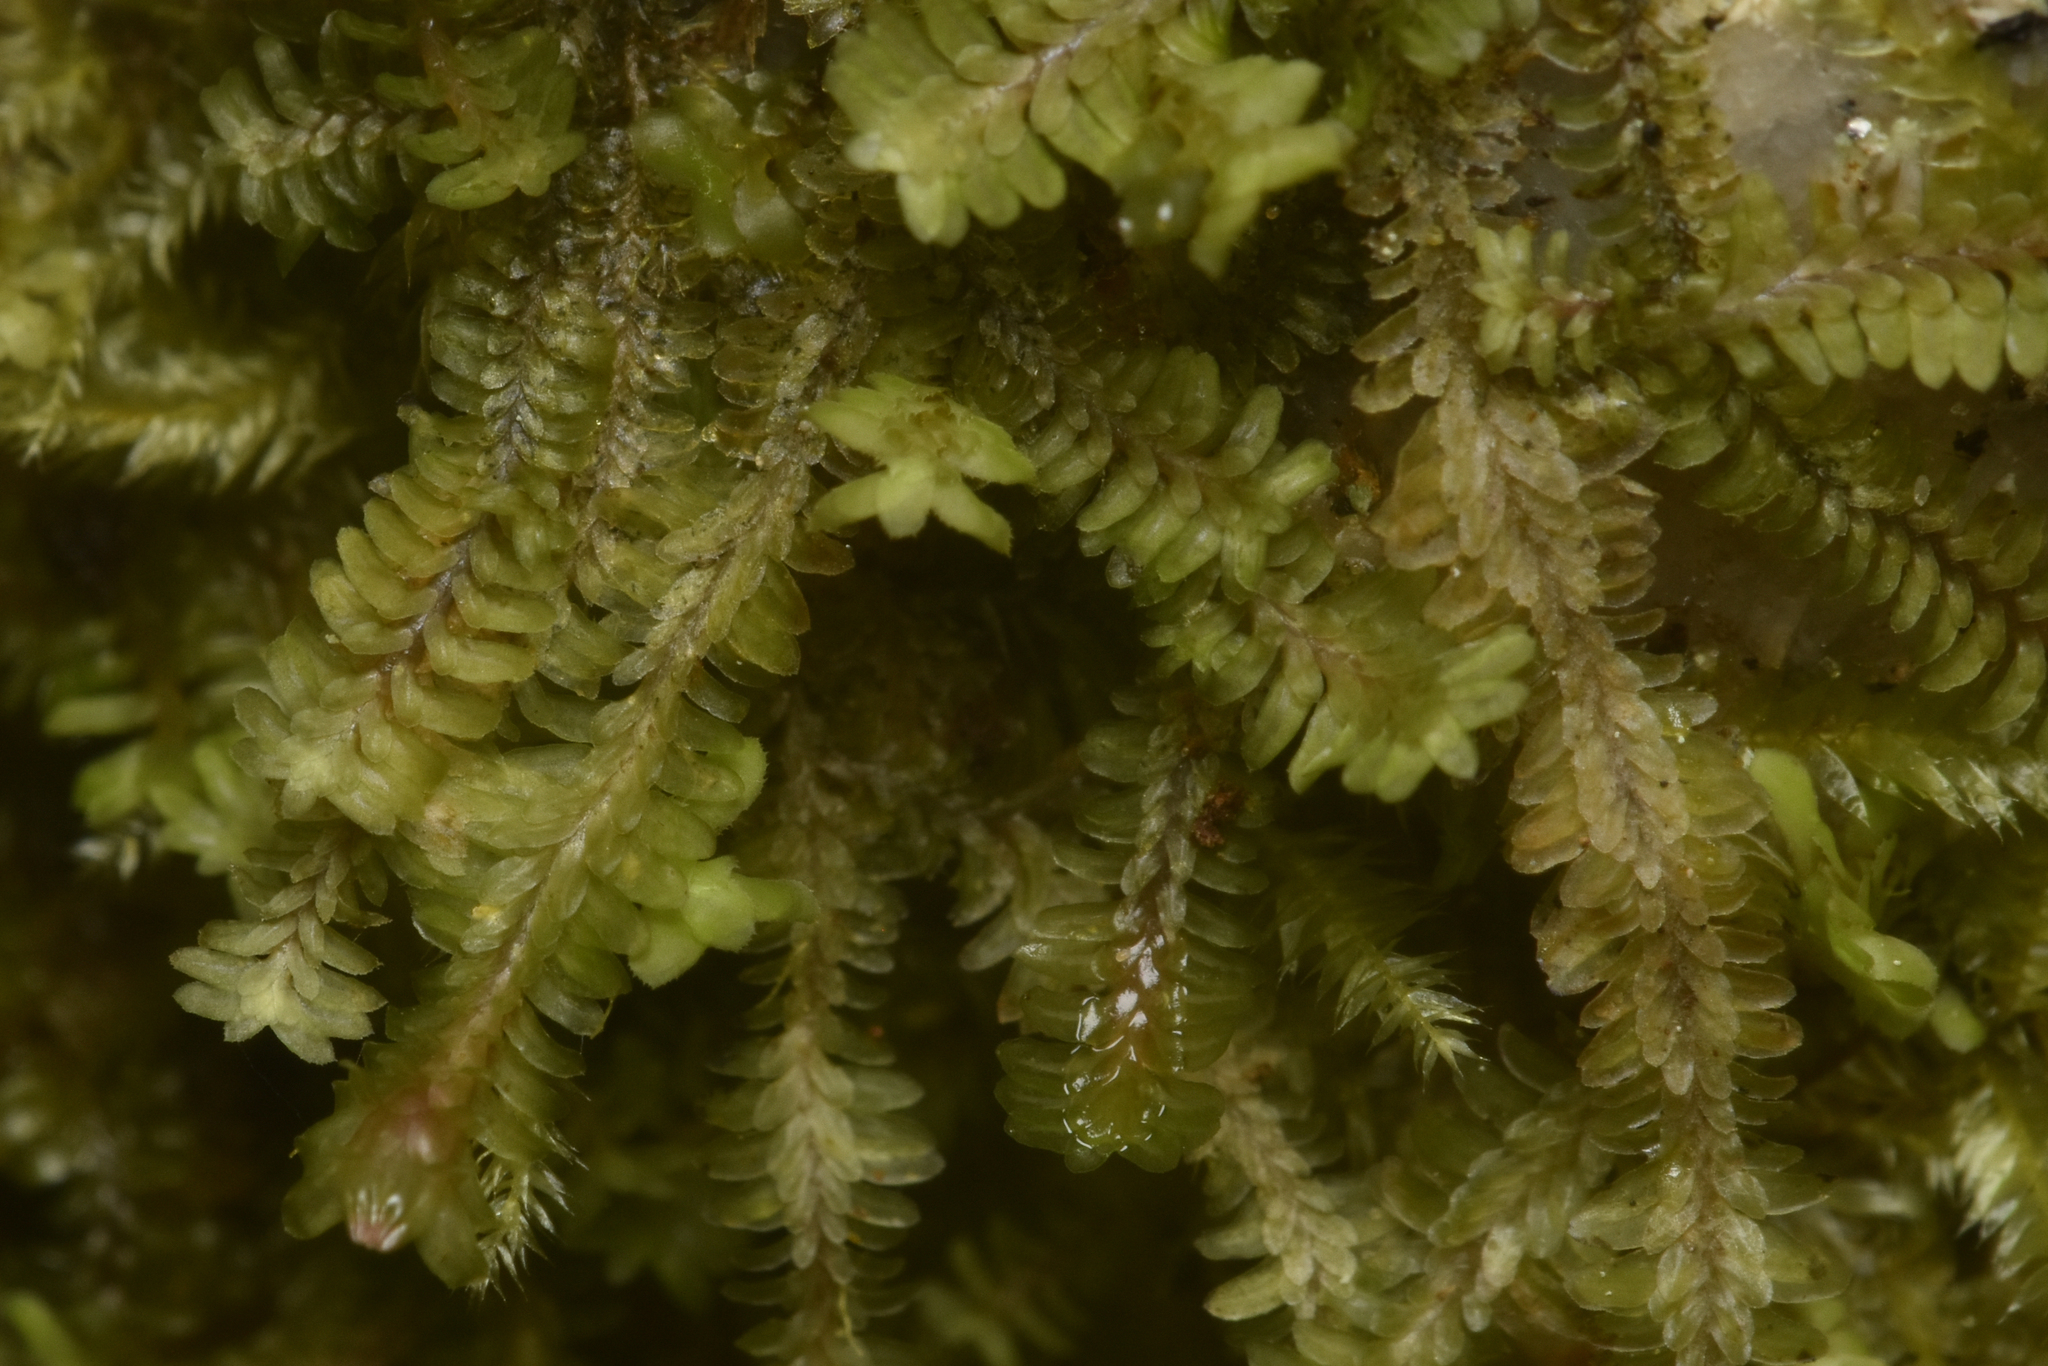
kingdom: Plantae
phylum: Marchantiophyta
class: Jungermanniopsida
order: Jungermanniales
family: Scapaniaceae
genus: Diplophyllum
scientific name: Diplophyllum albicans
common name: White earwort
